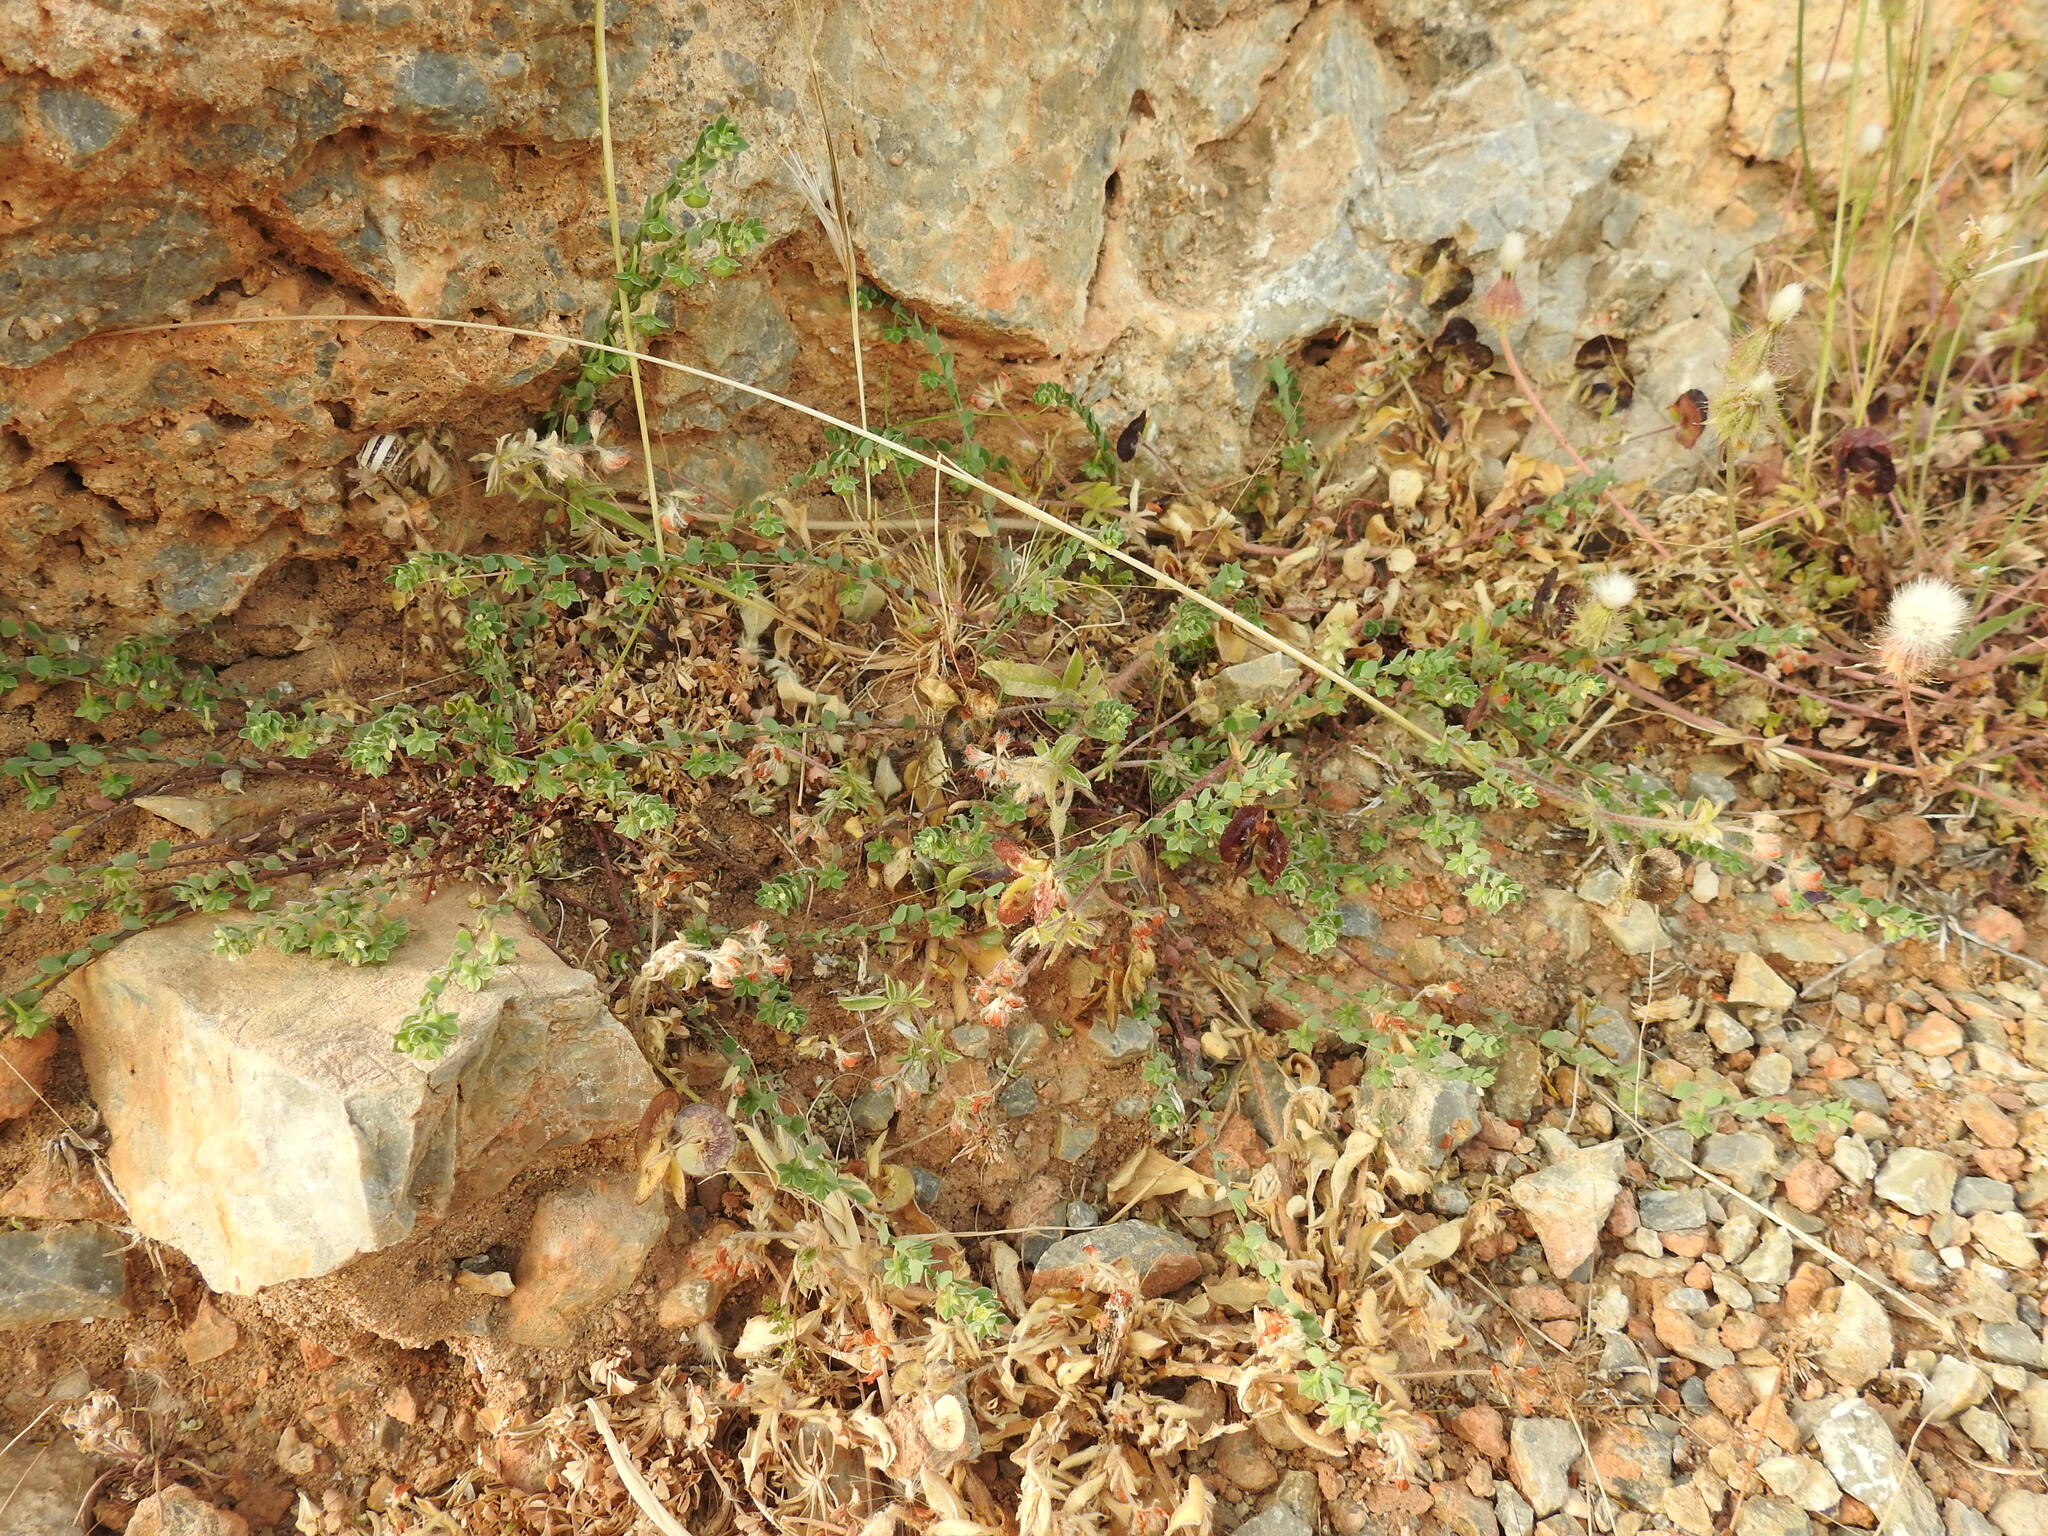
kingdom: Plantae
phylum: Tracheophyta
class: Magnoliopsida
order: Malpighiales
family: Phyllanthaceae
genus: Andrachne
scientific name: Andrachne telephioides
